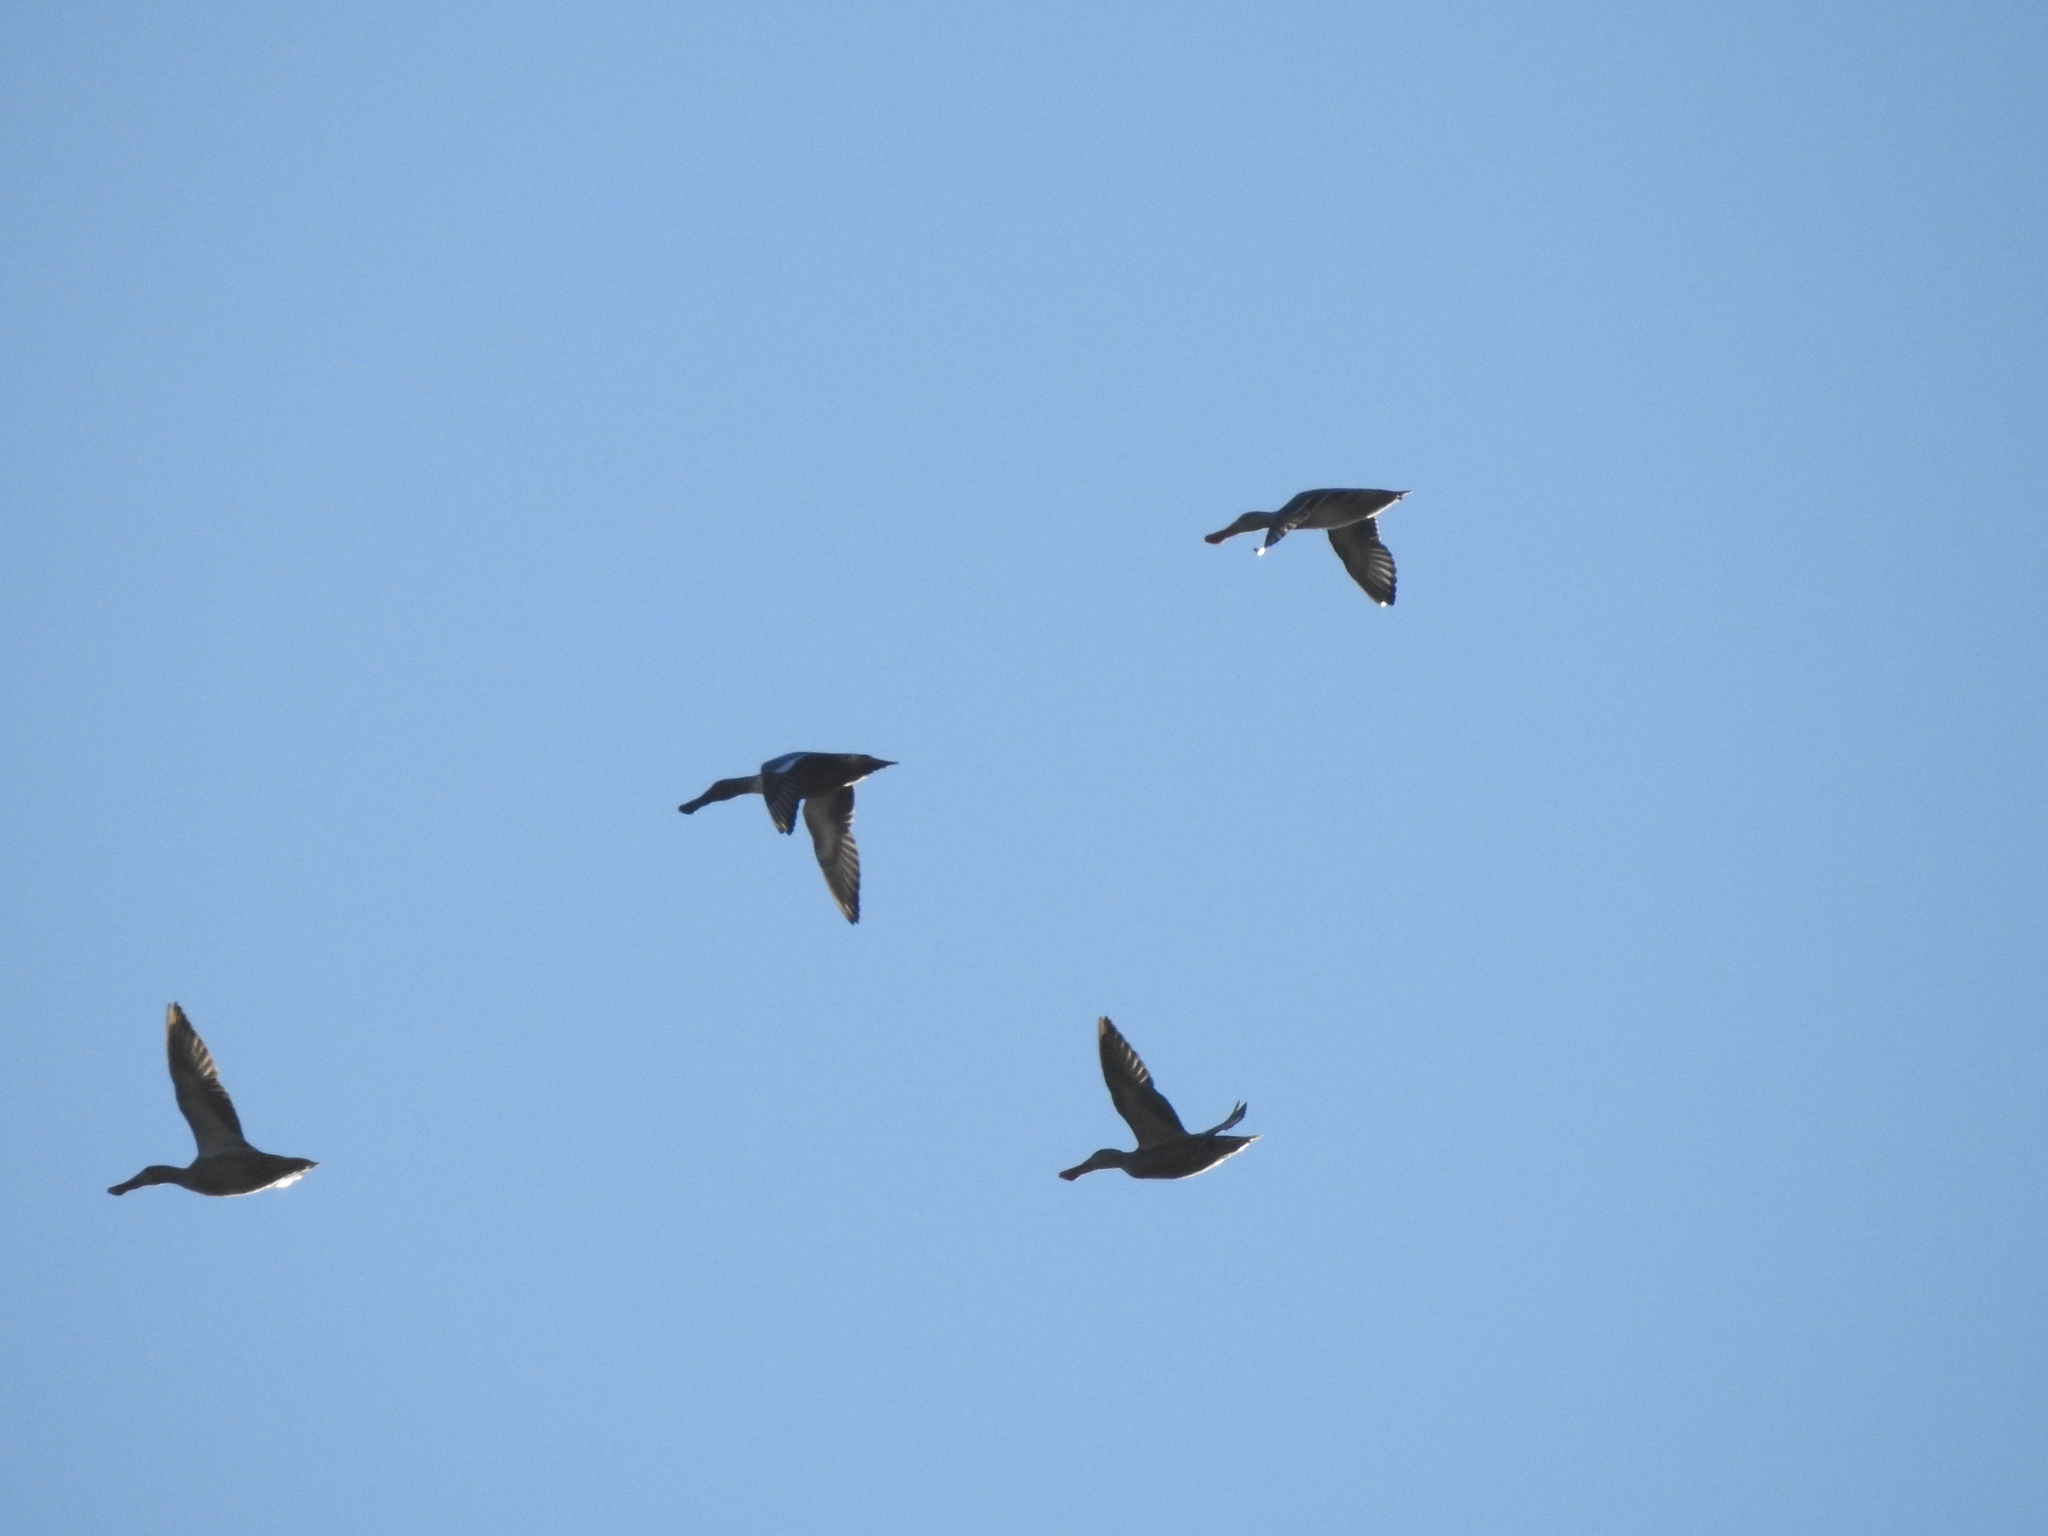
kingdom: Animalia
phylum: Chordata
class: Aves
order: Anseriformes
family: Anatidae
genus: Spatula
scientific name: Spatula clypeata
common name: Northern shoveler
